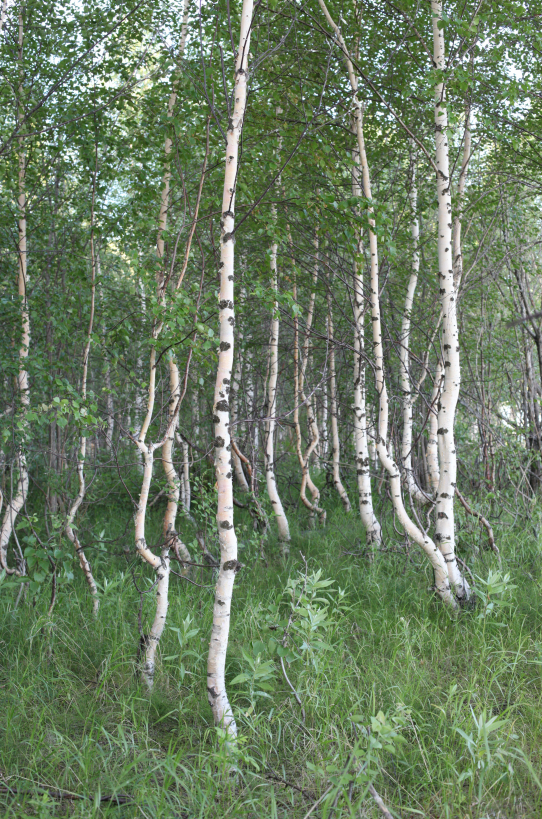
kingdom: Plantae
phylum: Tracheophyta
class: Magnoliopsida
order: Fagales
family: Betulaceae
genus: Betula
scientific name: Betula pubescens
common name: Downy birch
